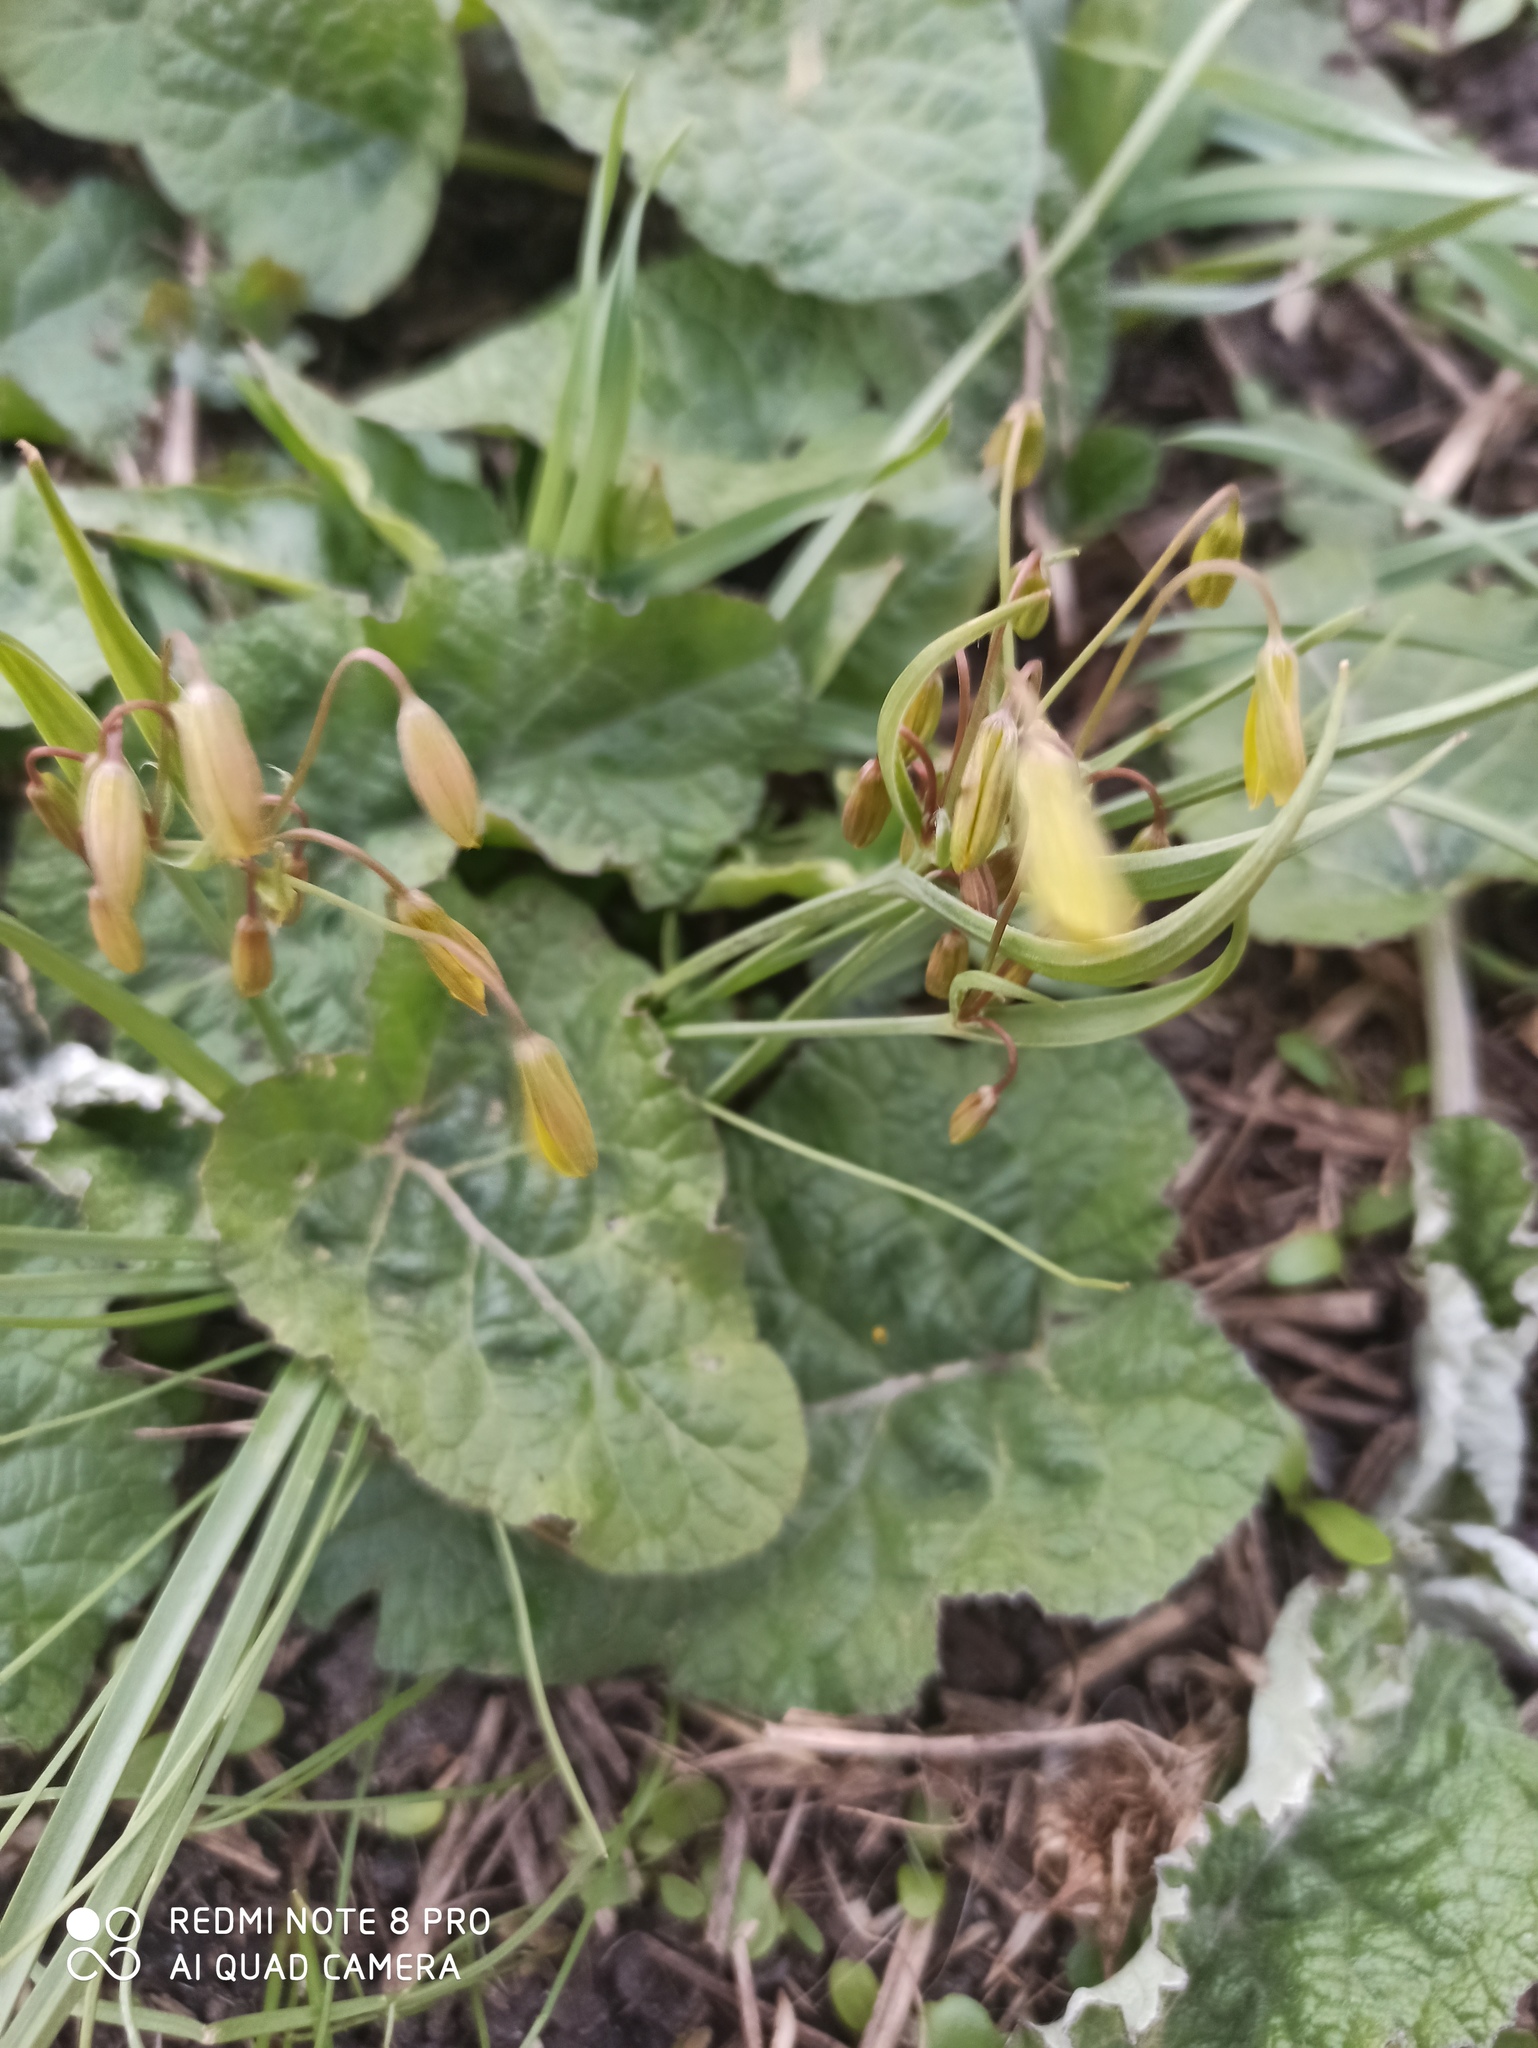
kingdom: Plantae
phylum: Tracheophyta
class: Liliopsida
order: Liliales
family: Liliaceae
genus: Gagea
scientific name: Gagea fragifera
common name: Lily
